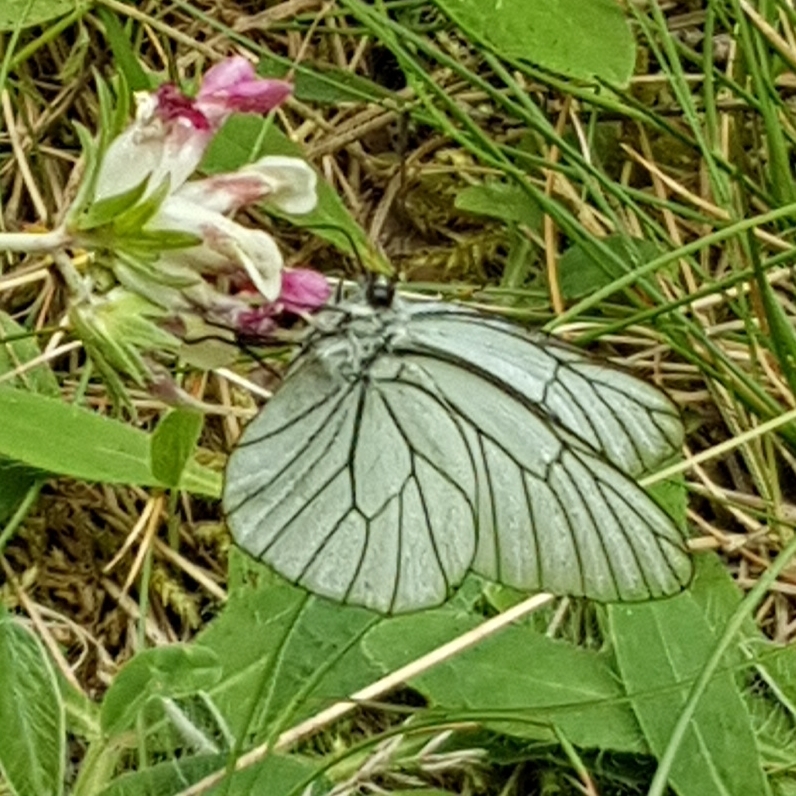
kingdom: Animalia
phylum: Arthropoda
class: Insecta
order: Lepidoptera
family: Pieridae
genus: Aporia
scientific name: Aporia crataegi
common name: Black-veined white
